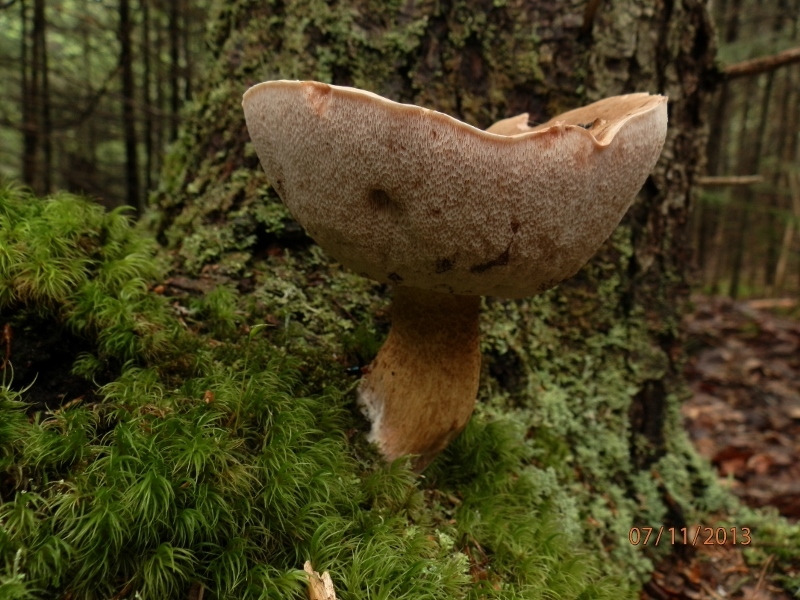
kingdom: Fungi
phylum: Basidiomycota
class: Agaricomycetes
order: Boletales
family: Boletaceae
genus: Tylopilus
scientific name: Tylopilus felleus
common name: Bitter bolete
